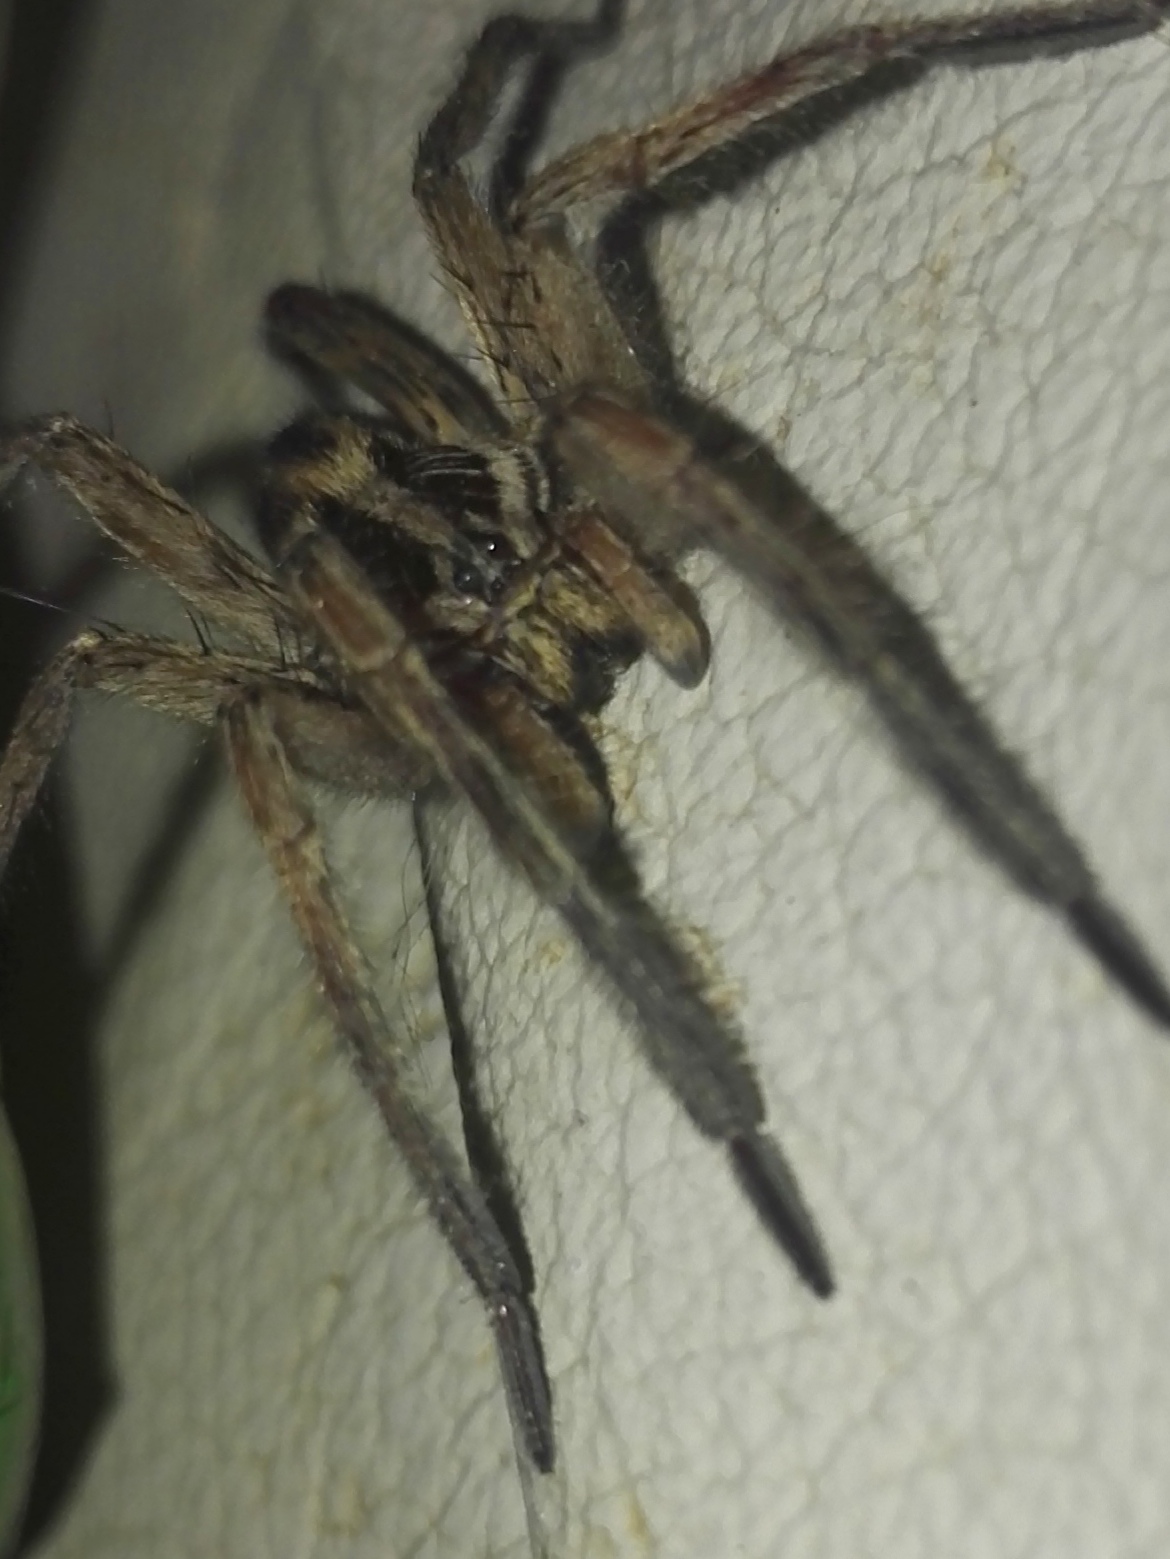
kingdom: Animalia
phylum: Arthropoda
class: Arachnida
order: Araneae
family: Lycosidae
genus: Hogna
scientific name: Hogna radiata
